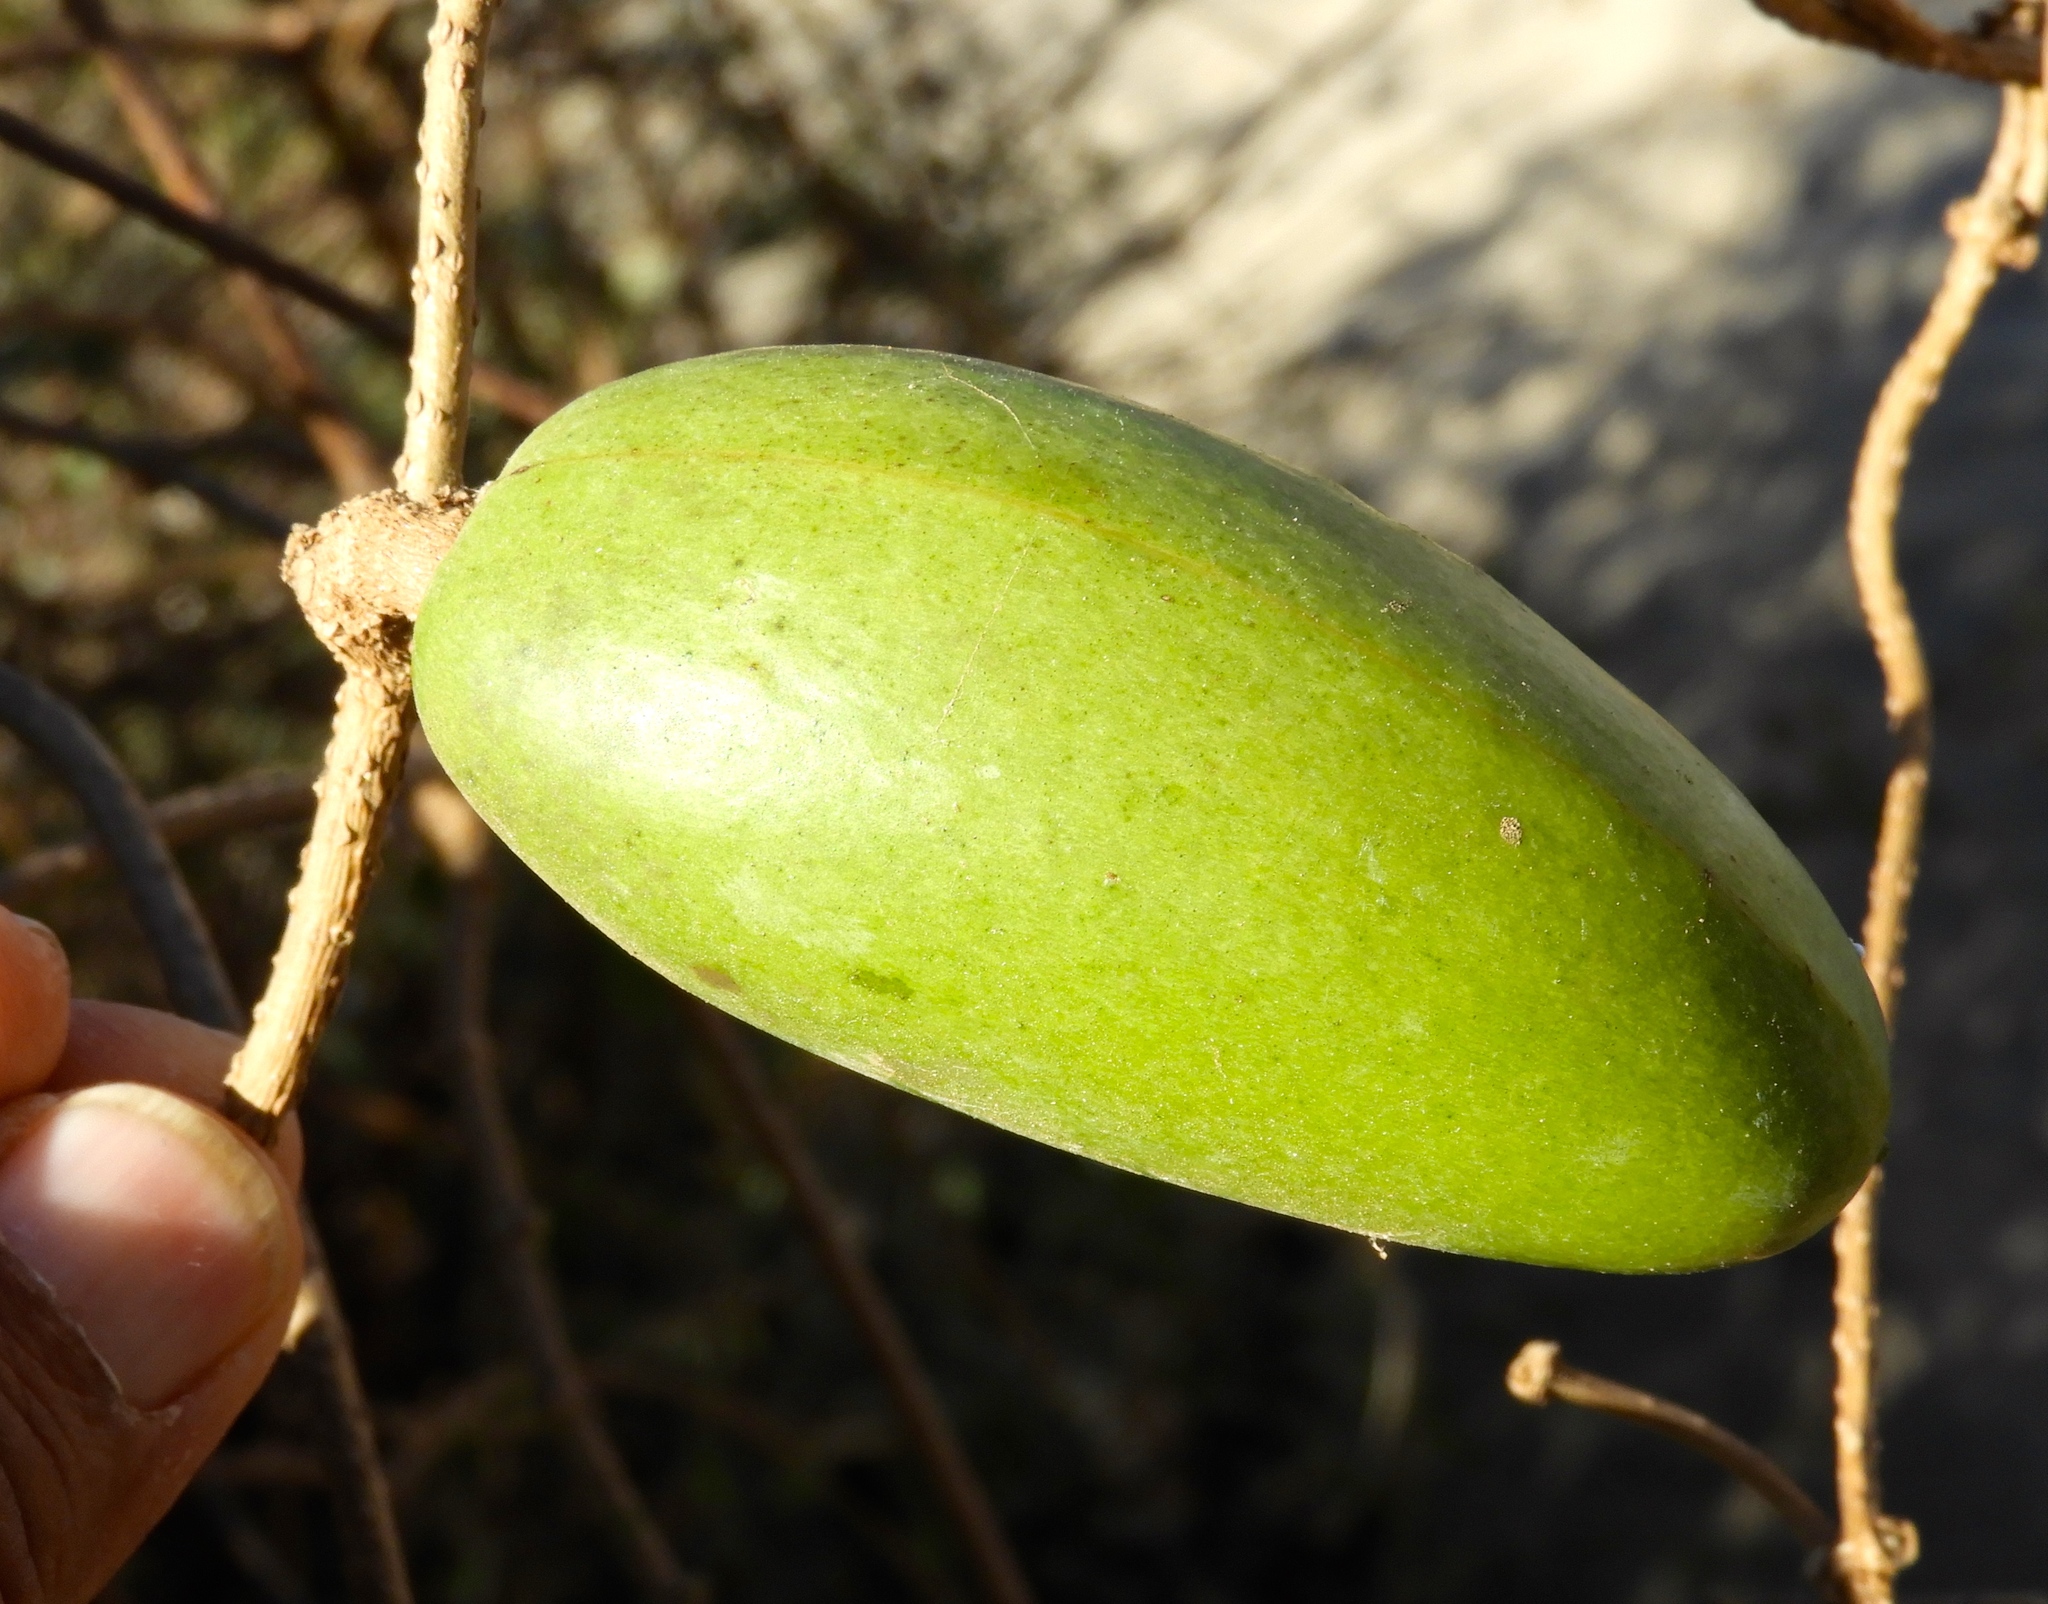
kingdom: Plantae
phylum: Tracheophyta
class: Magnoliopsida
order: Gentianales
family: Apocynaceae
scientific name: Apocynaceae
